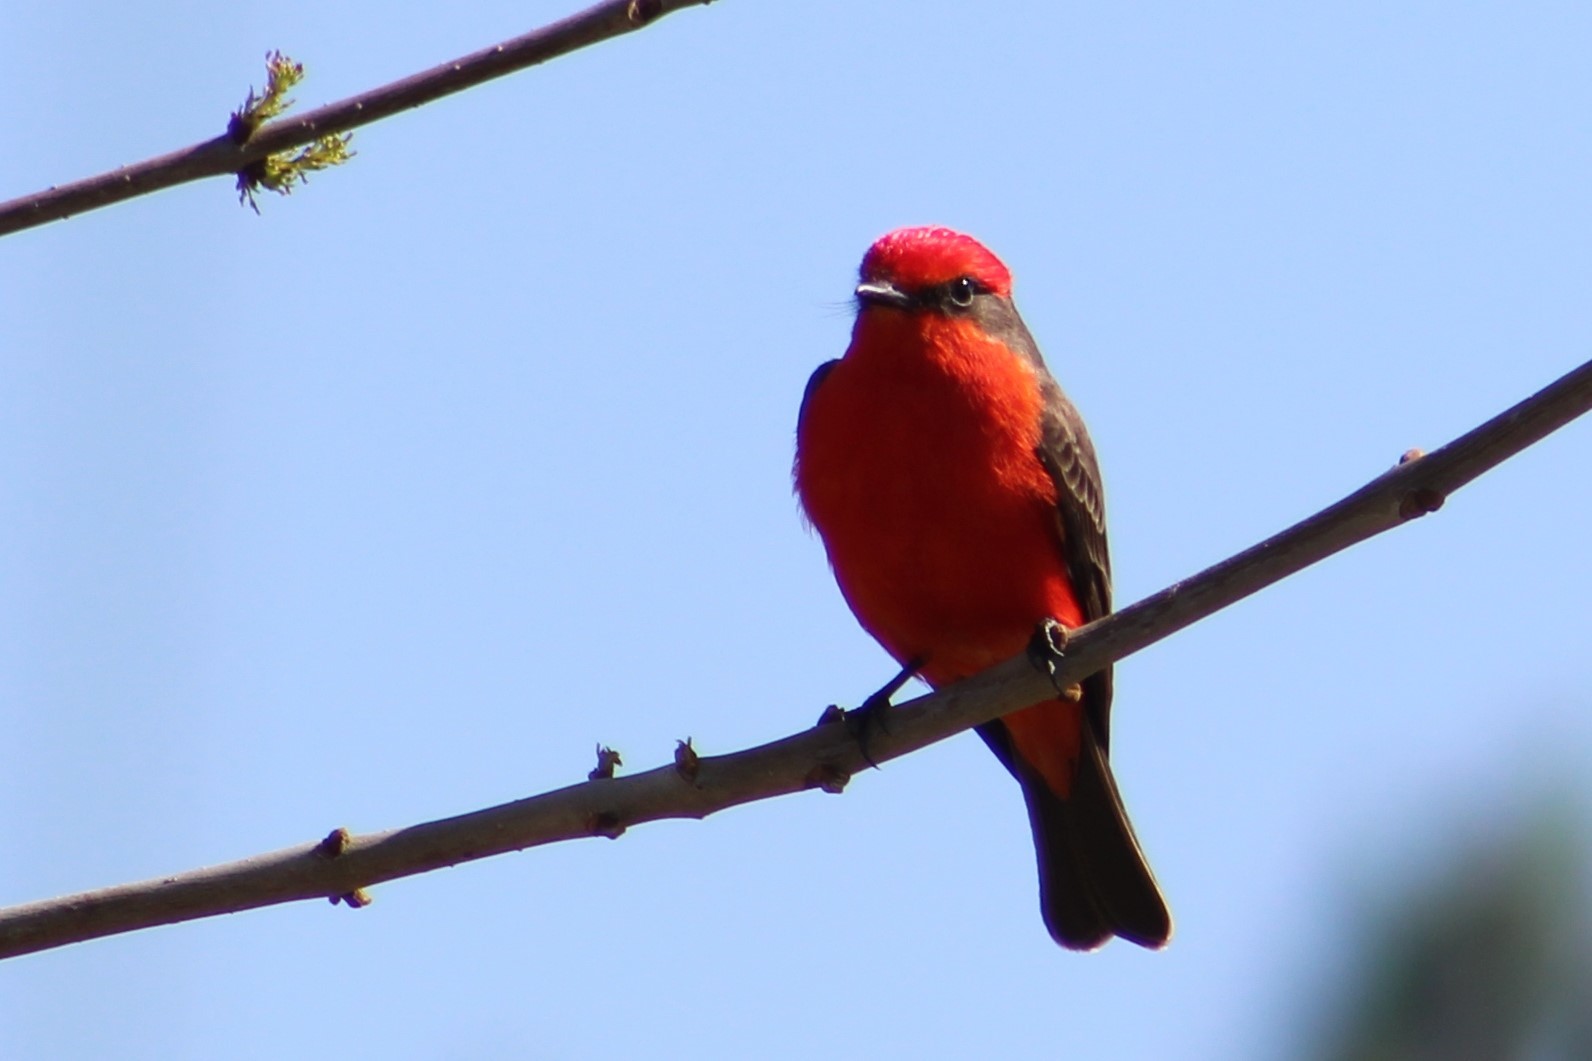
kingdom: Animalia
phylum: Chordata
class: Aves
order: Passeriformes
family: Tyrannidae
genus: Pyrocephalus
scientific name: Pyrocephalus rubinus
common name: Vermilion flycatcher
